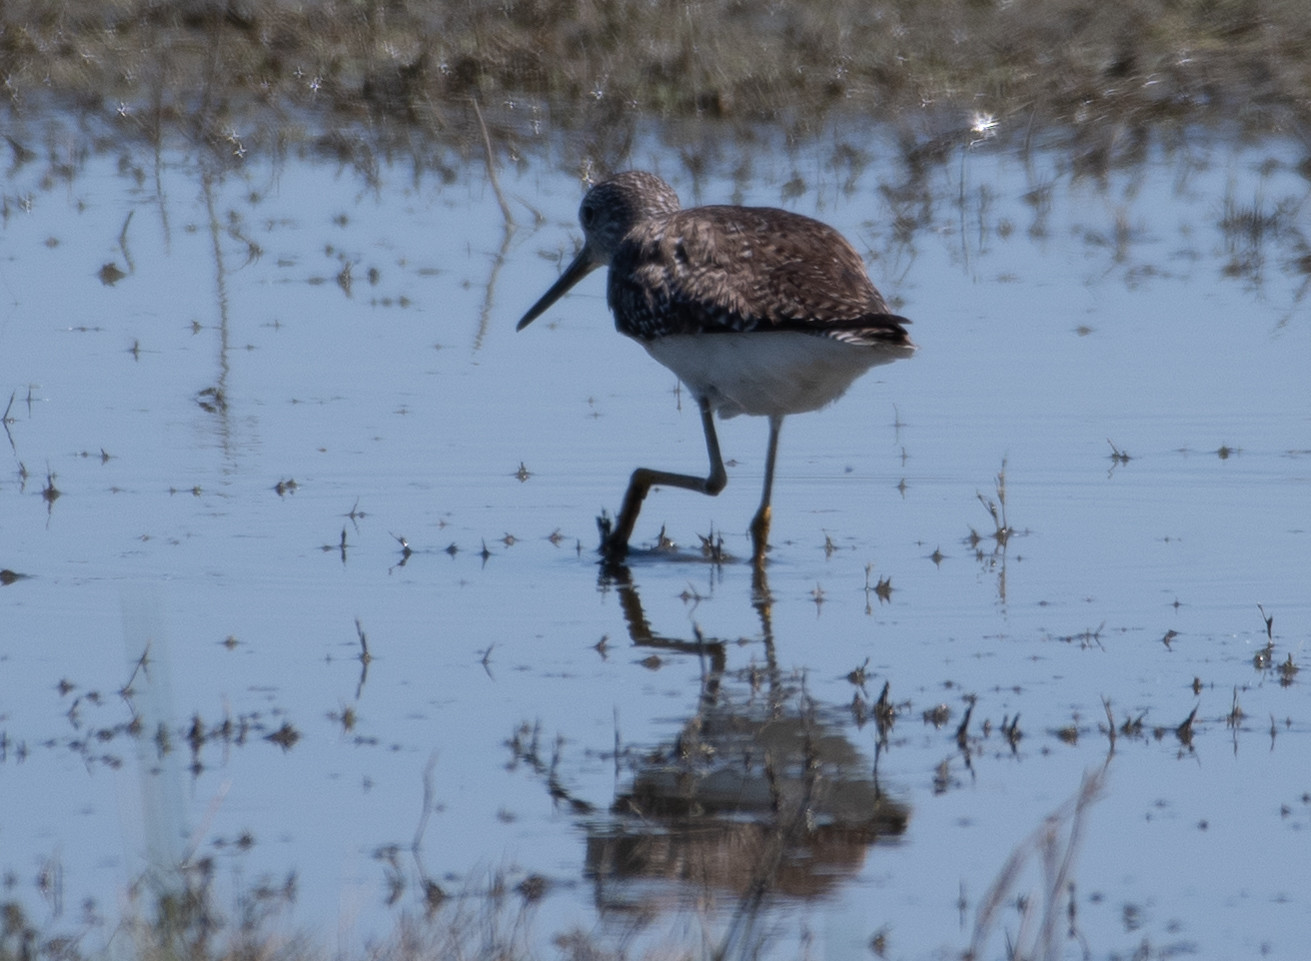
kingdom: Animalia
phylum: Chordata
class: Aves
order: Charadriiformes
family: Scolopacidae
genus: Tringa
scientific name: Tringa melanoleuca
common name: Greater yellowlegs
